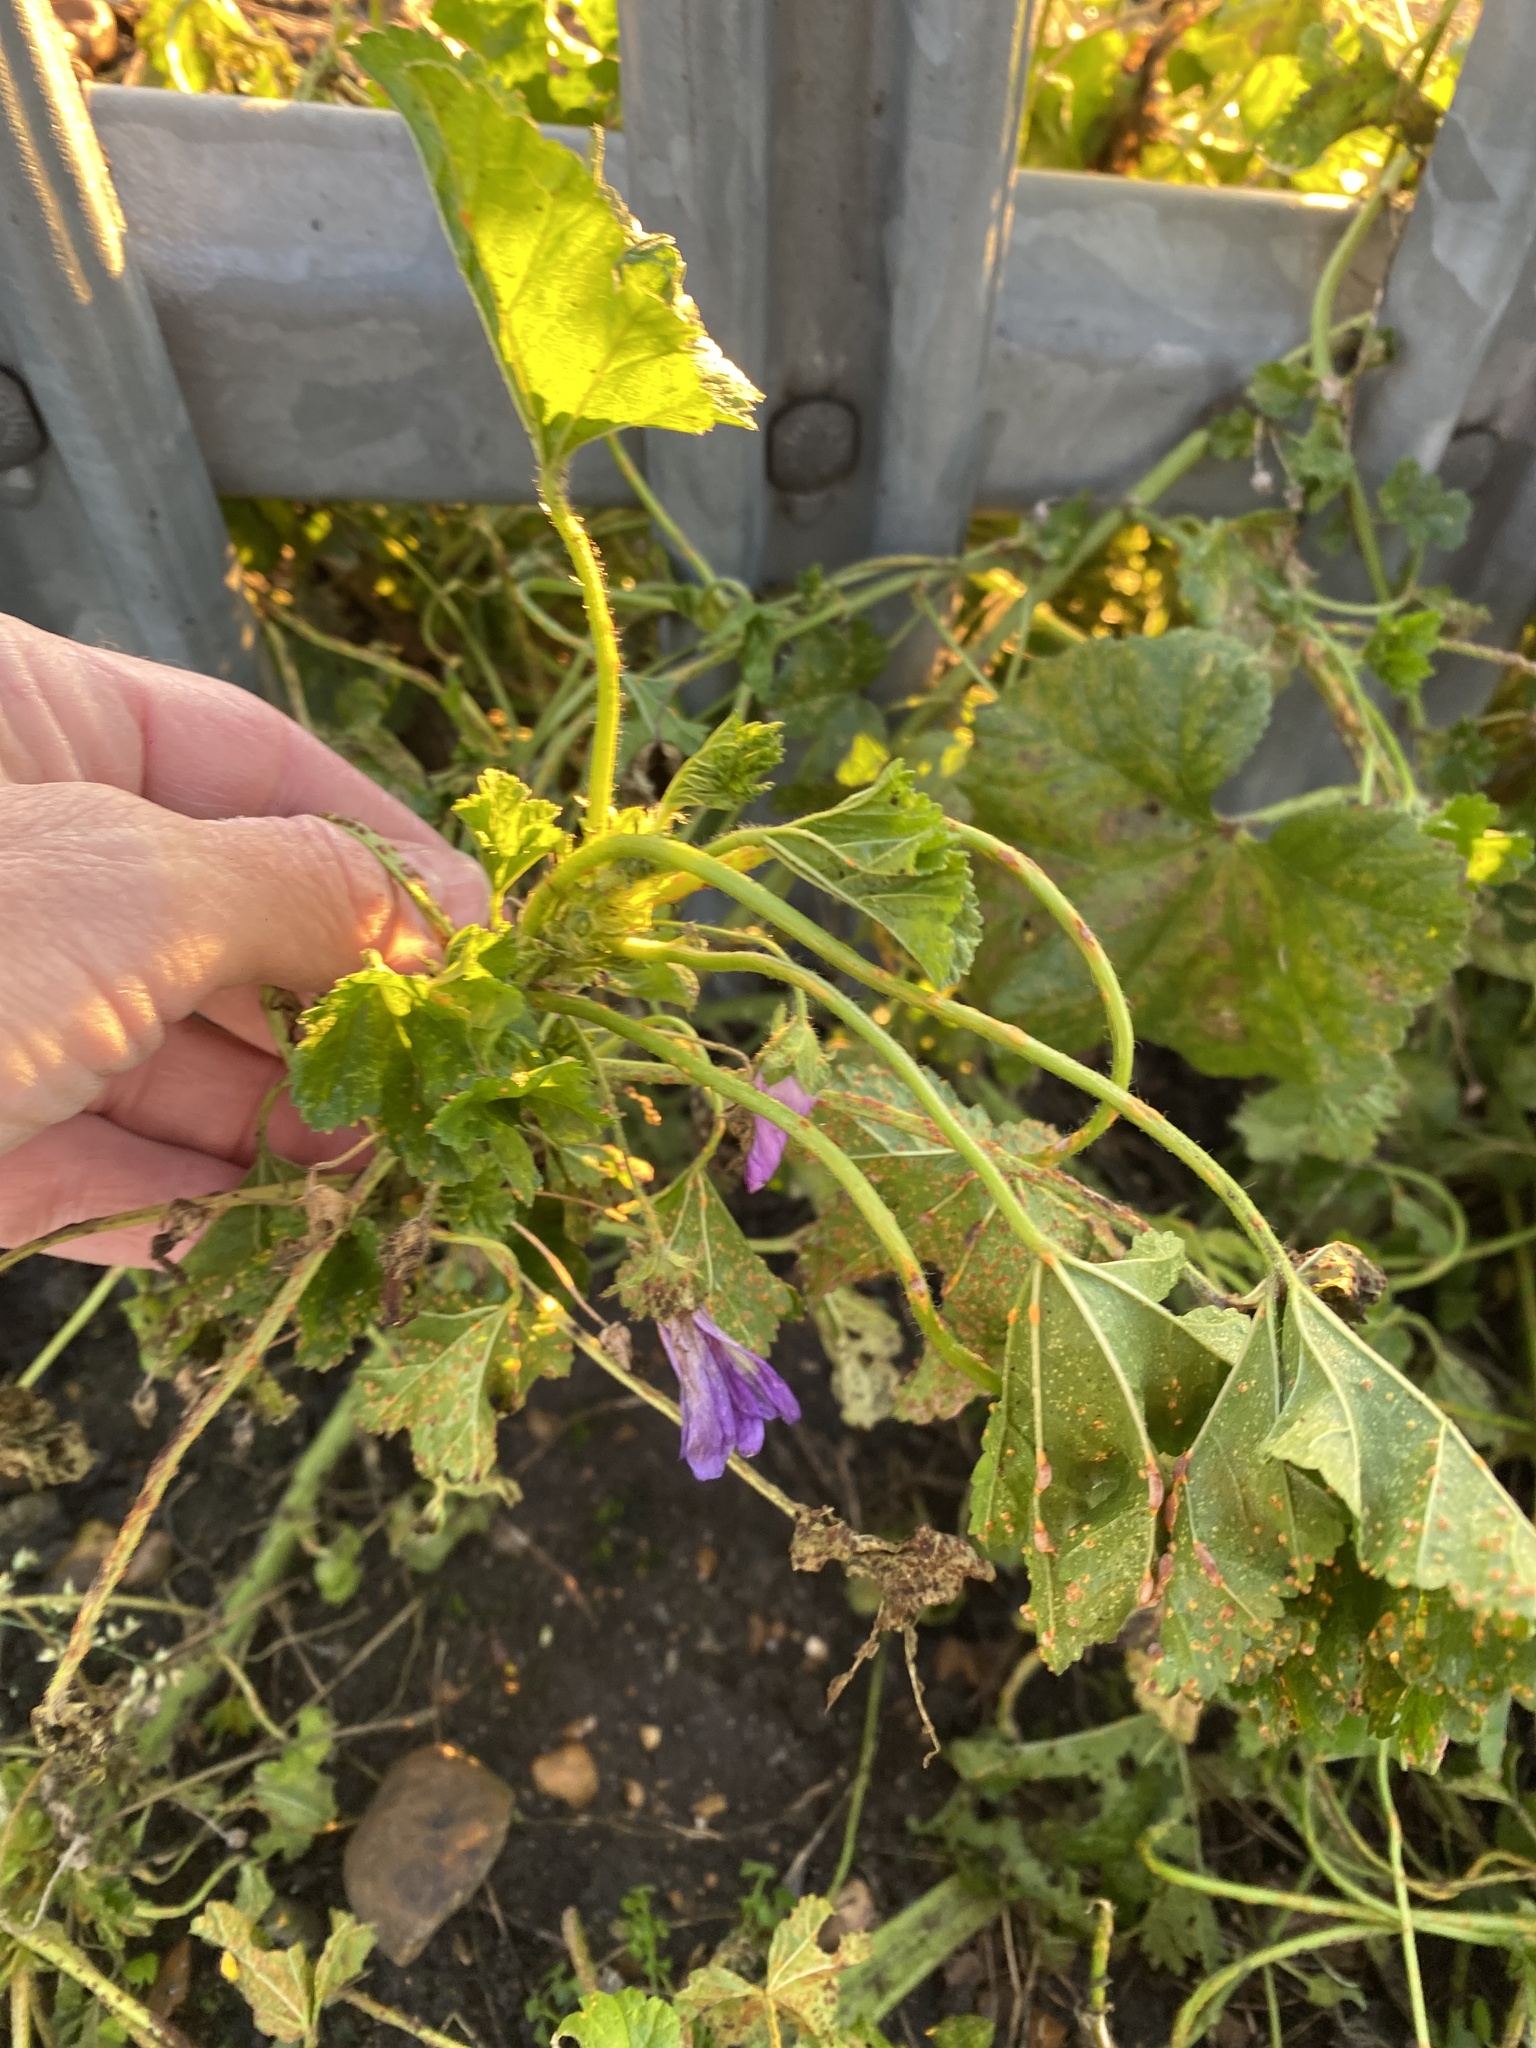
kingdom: Plantae
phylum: Tracheophyta
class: Magnoliopsida
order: Malvales
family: Malvaceae
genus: Malva
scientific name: Malva sylvestris
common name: Common mallow
